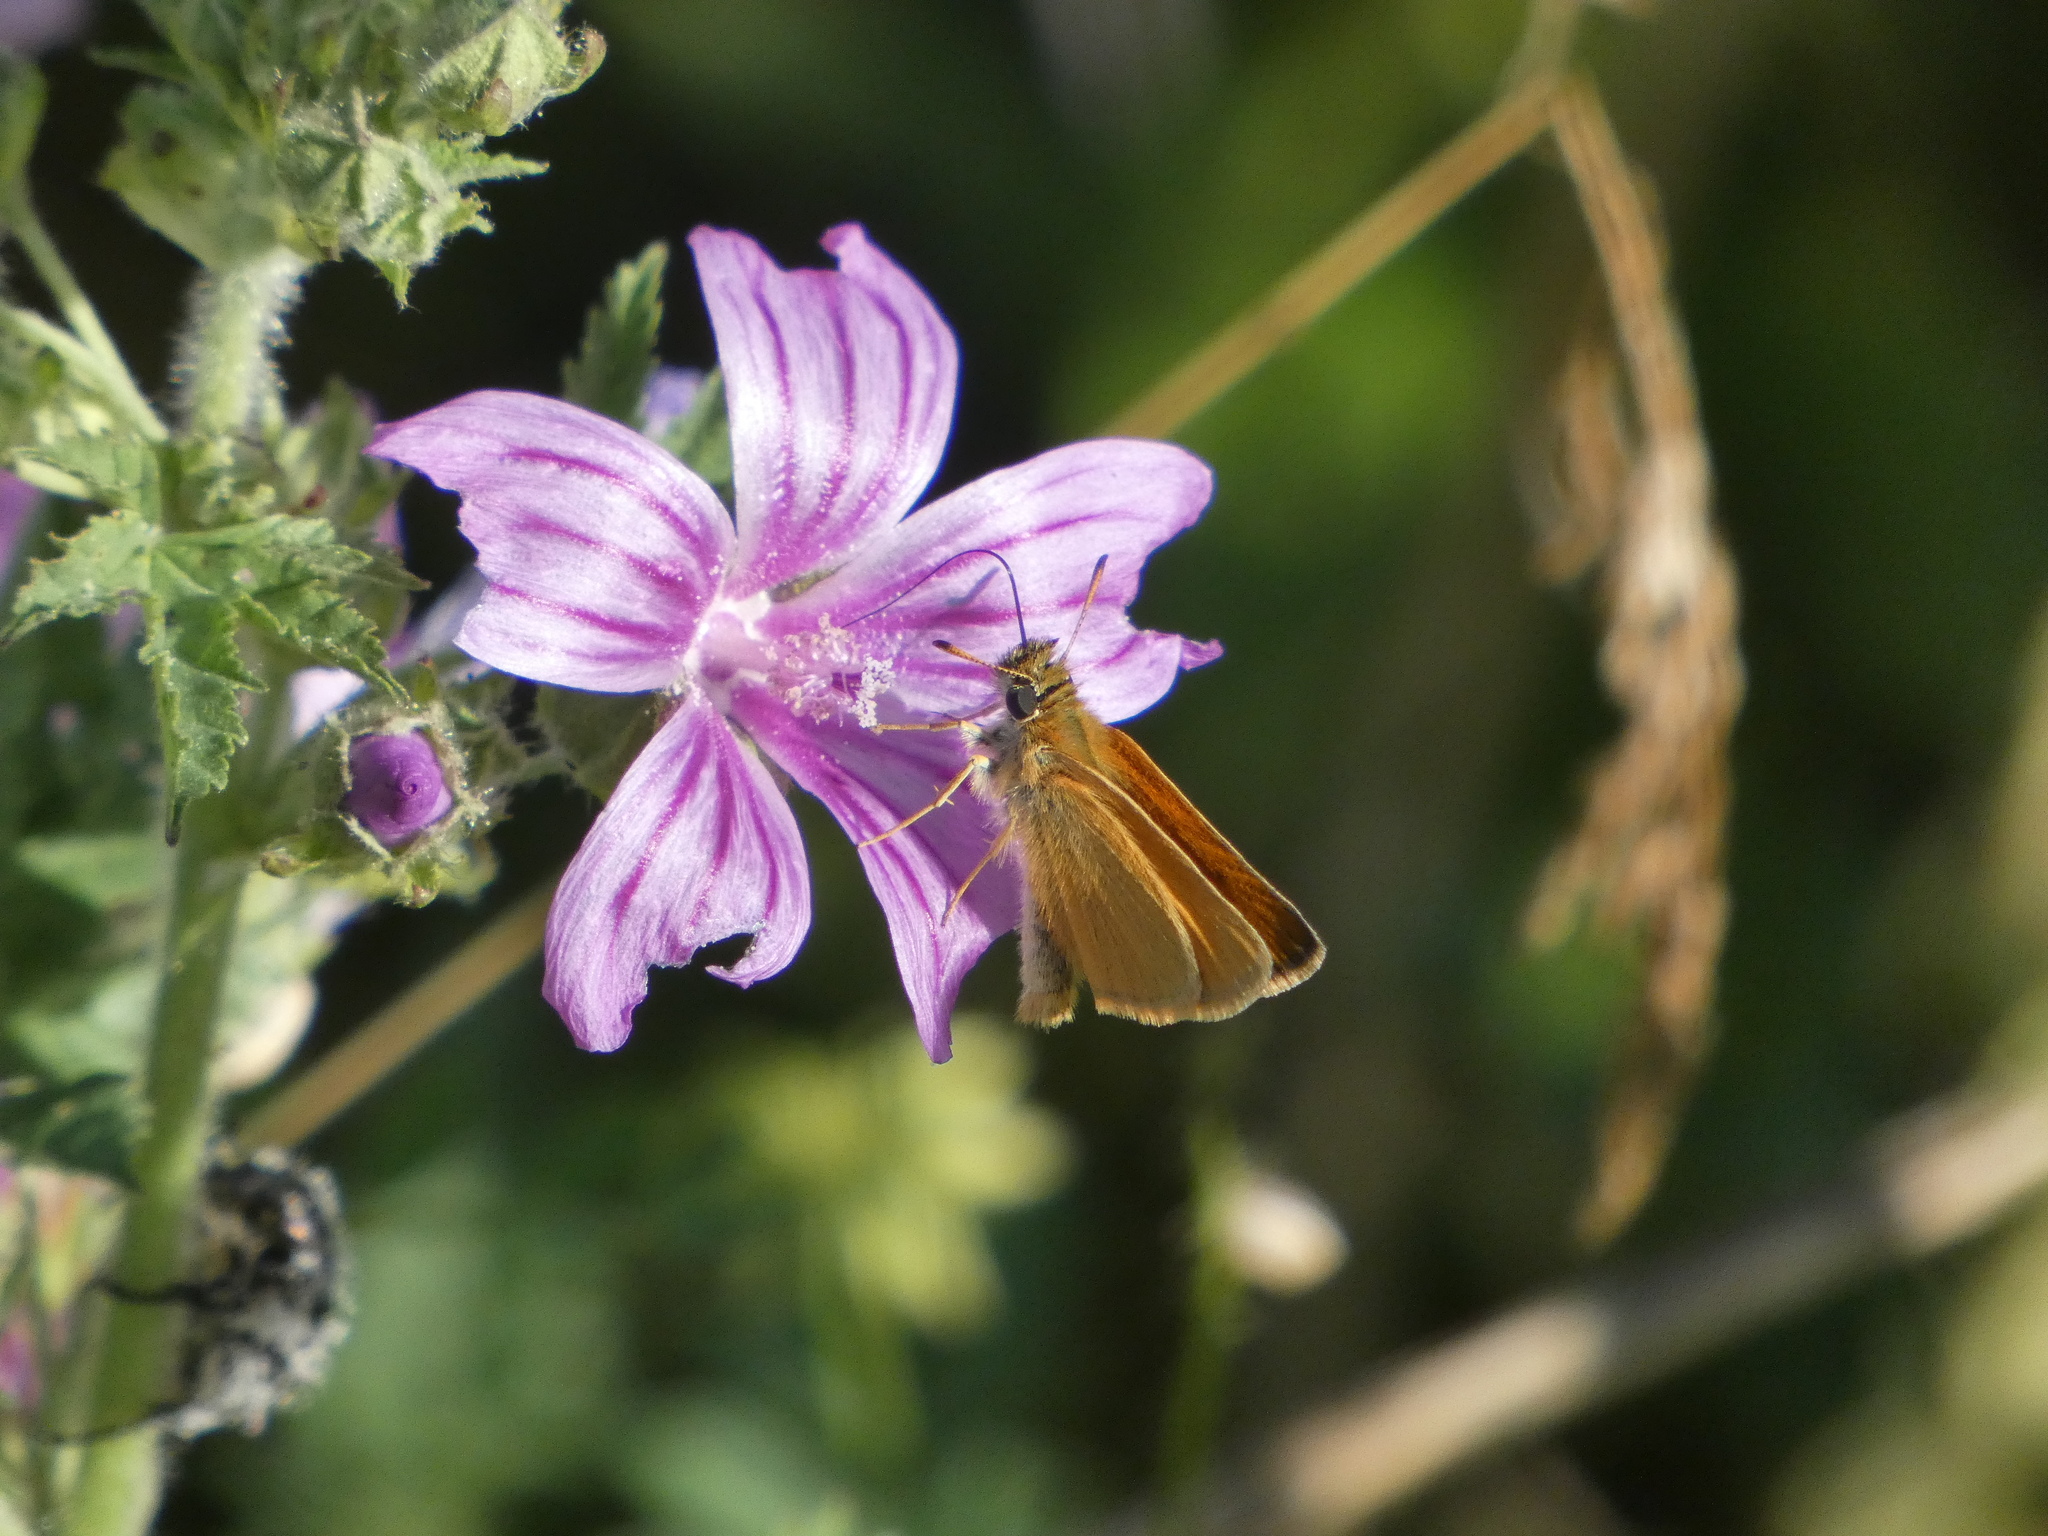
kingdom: Animalia
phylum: Arthropoda
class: Insecta
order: Lepidoptera
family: Hesperiidae
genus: Thymelicus
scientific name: Thymelicus lineola
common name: Essex skipper
